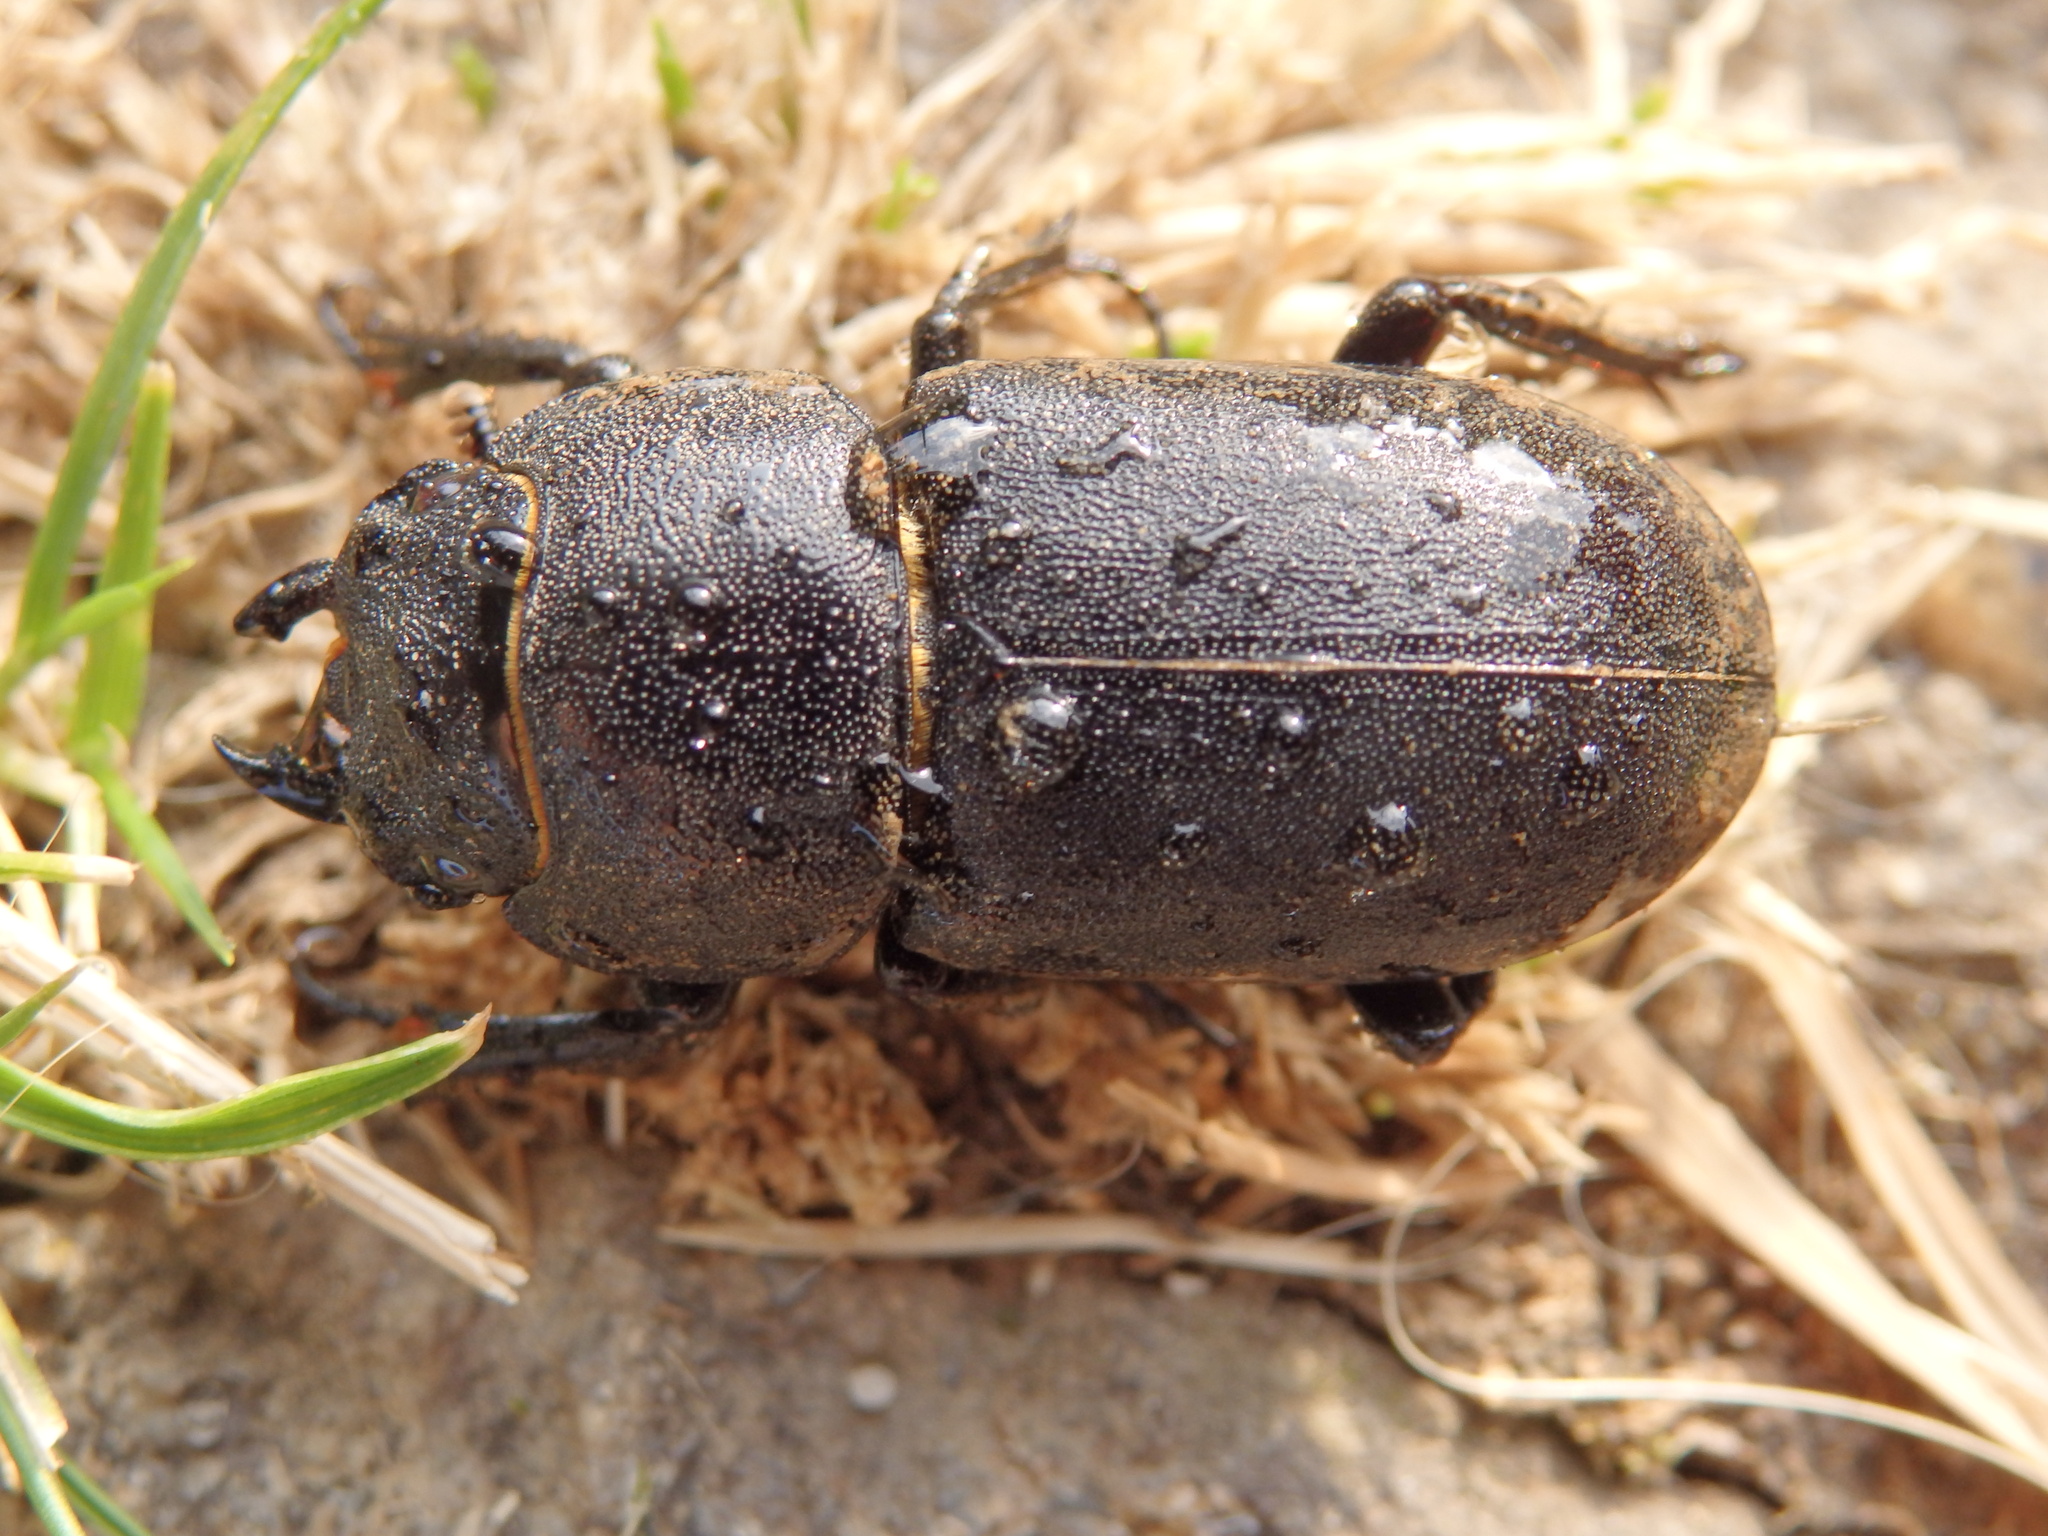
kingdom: Animalia
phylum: Arthropoda
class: Insecta
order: Coleoptera
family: Lucanidae
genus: Dorcus
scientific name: Dorcus parallelipipedus
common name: Lesser stag beetle
